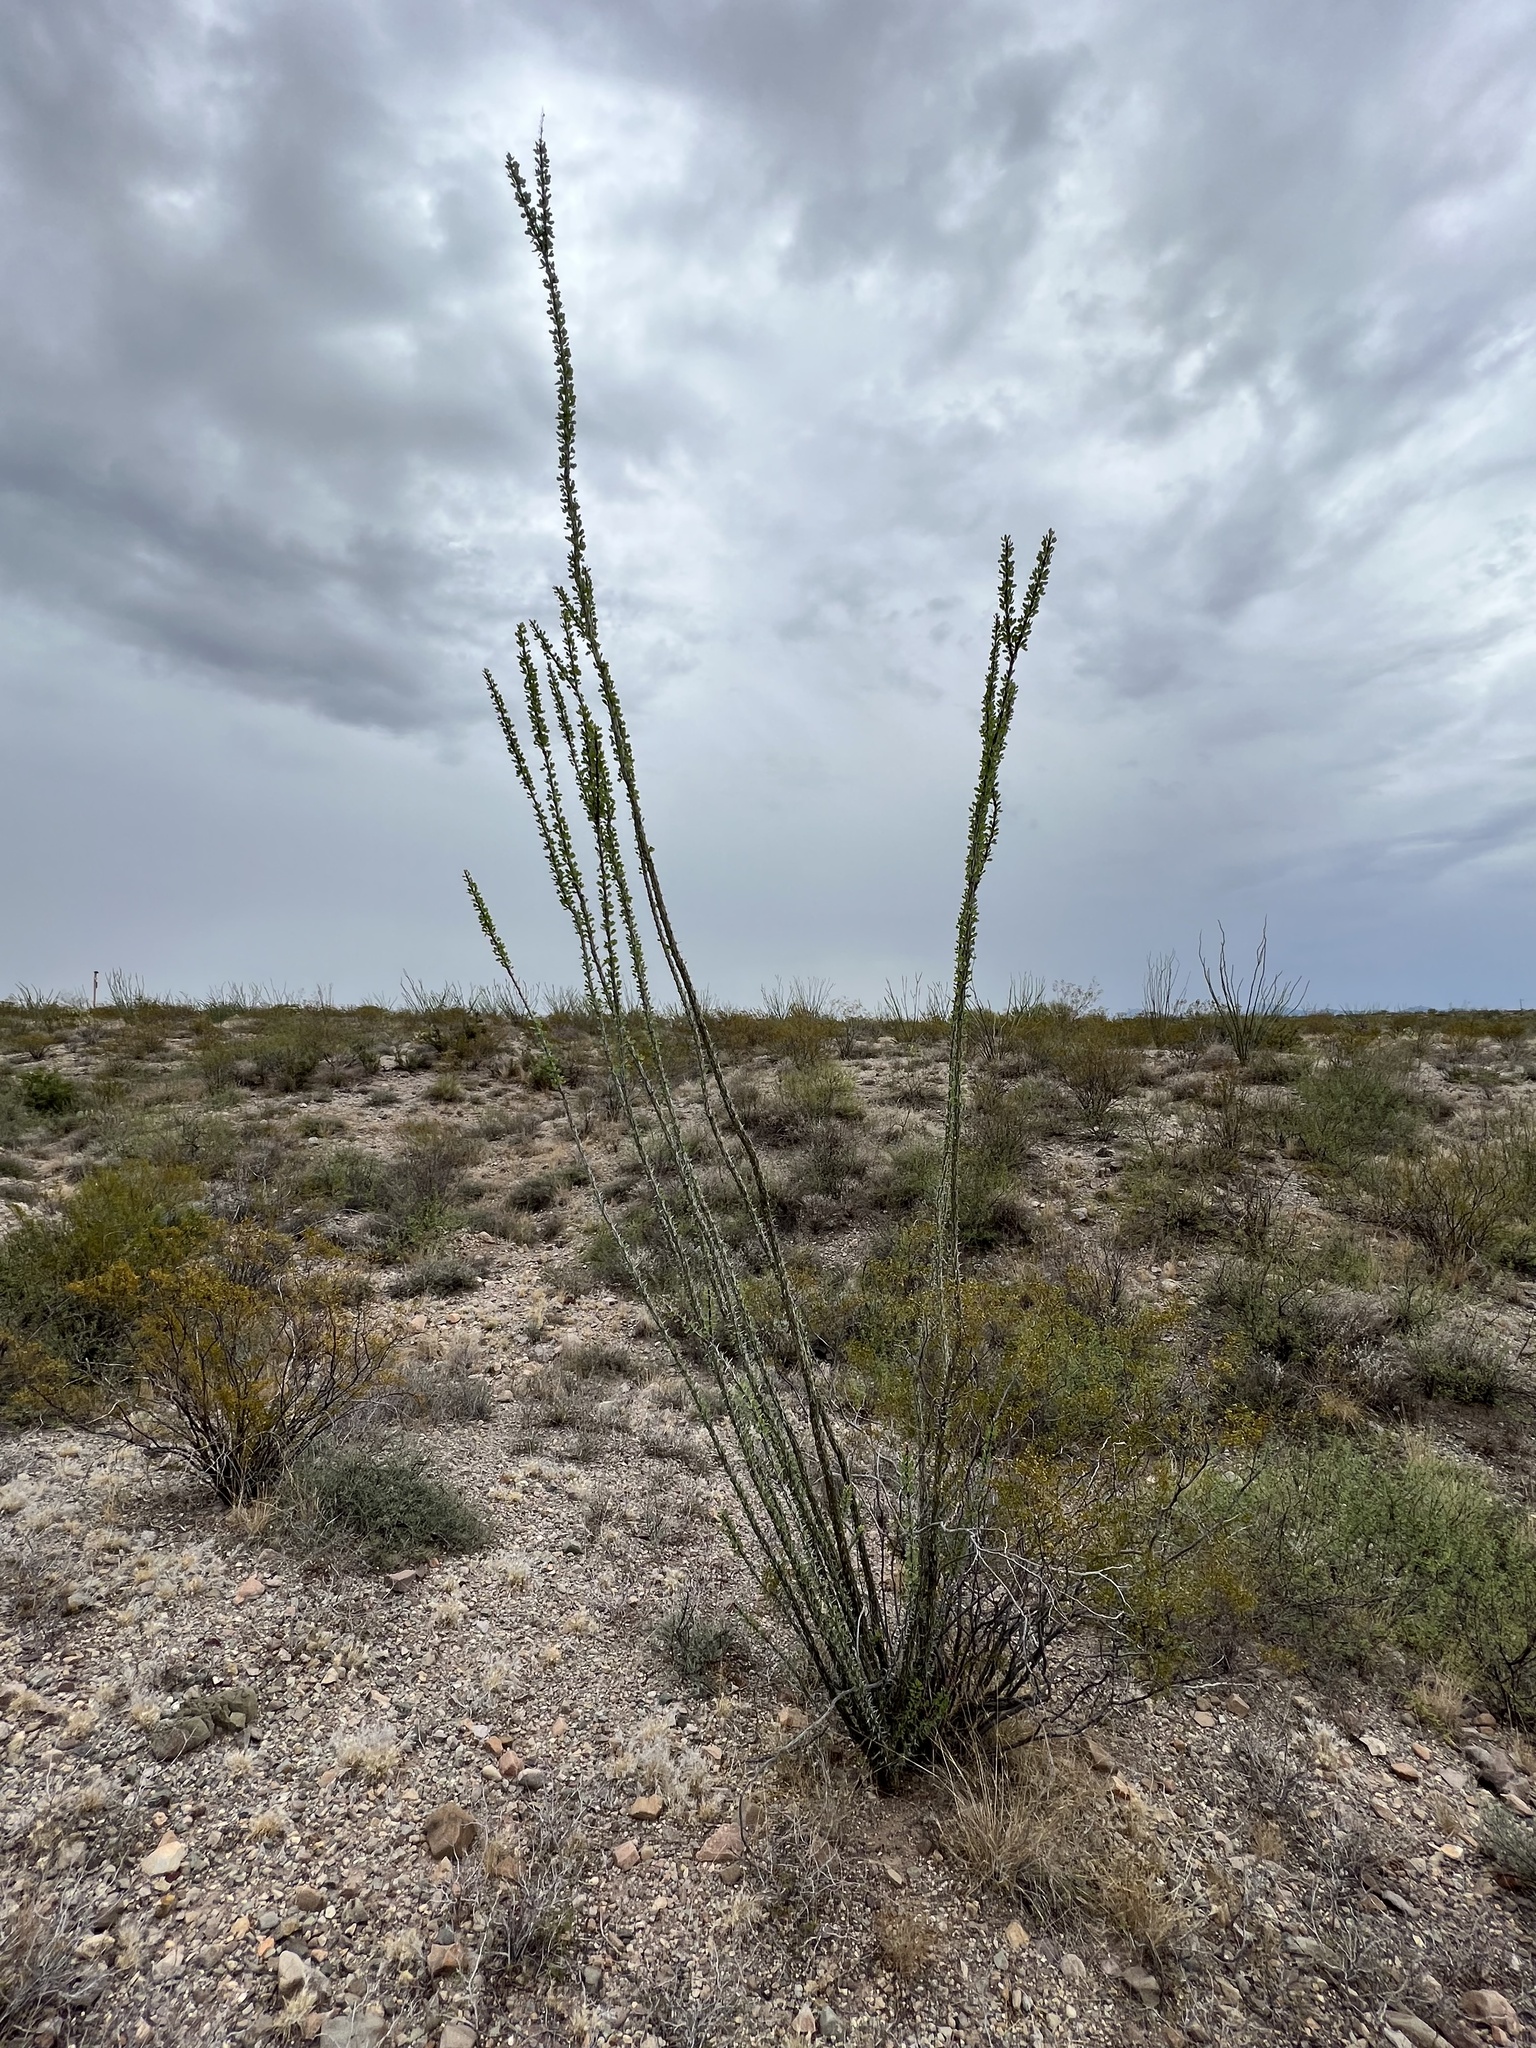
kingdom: Plantae
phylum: Tracheophyta
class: Magnoliopsida
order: Ericales
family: Fouquieriaceae
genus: Fouquieria
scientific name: Fouquieria splendens
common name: Vine-cactus
